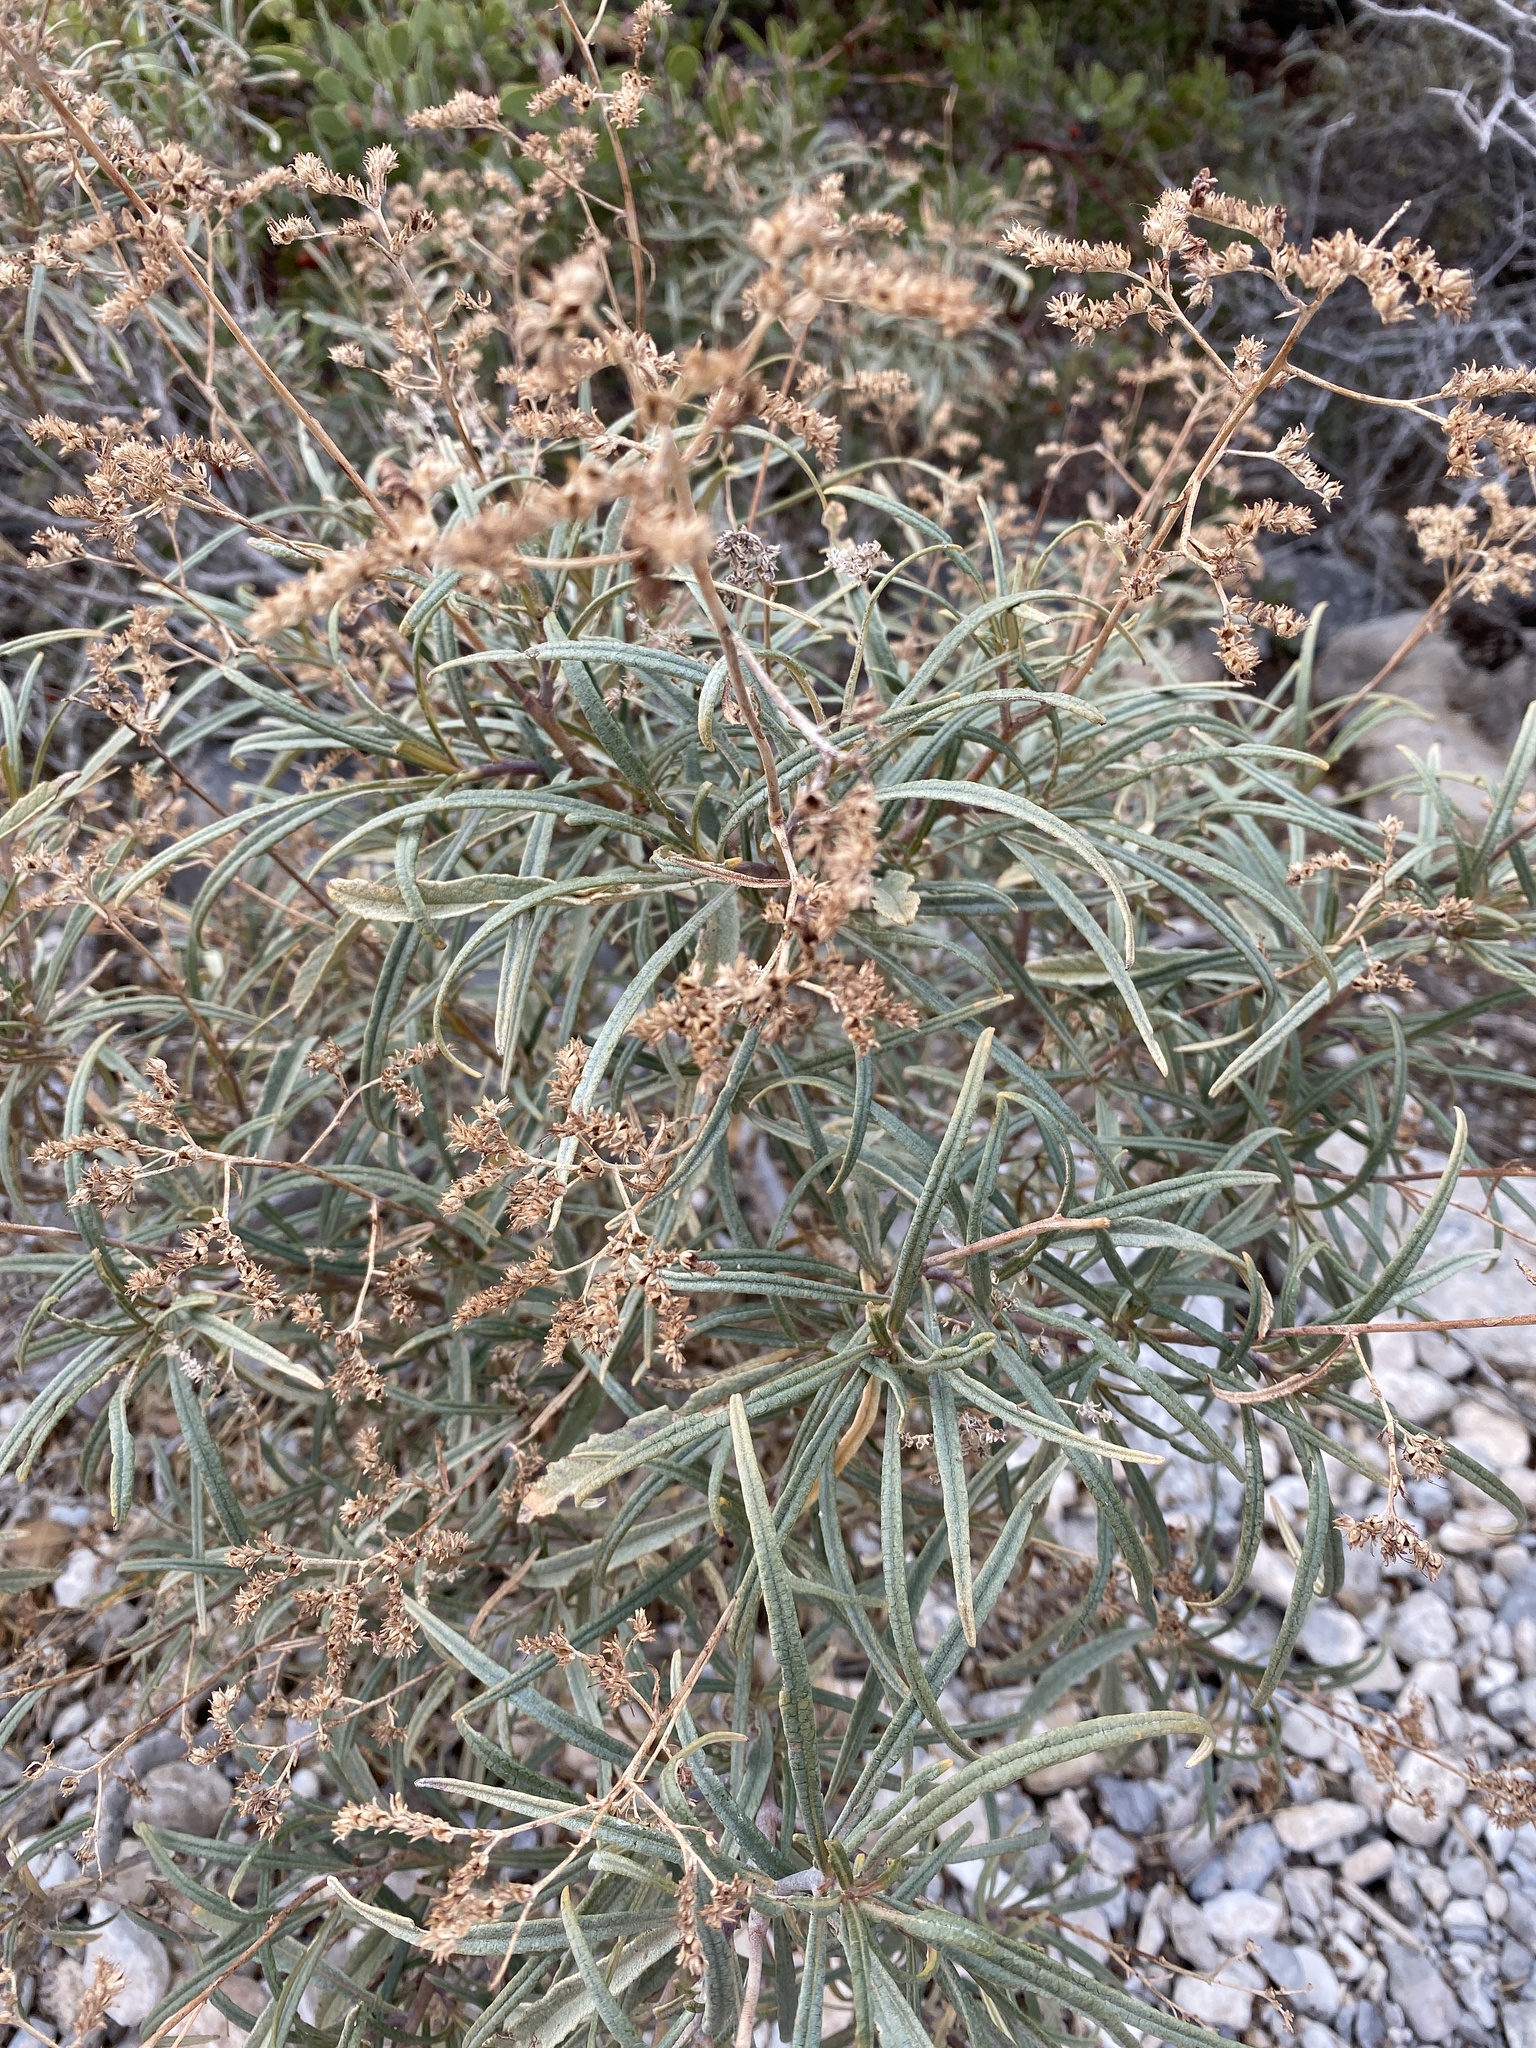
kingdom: Plantae
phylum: Tracheophyta
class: Magnoliopsida
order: Boraginales
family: Namaceae
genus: Eriodictyon
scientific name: Eriodictyon angustifolium
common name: Narrow-leaf yerba santa
